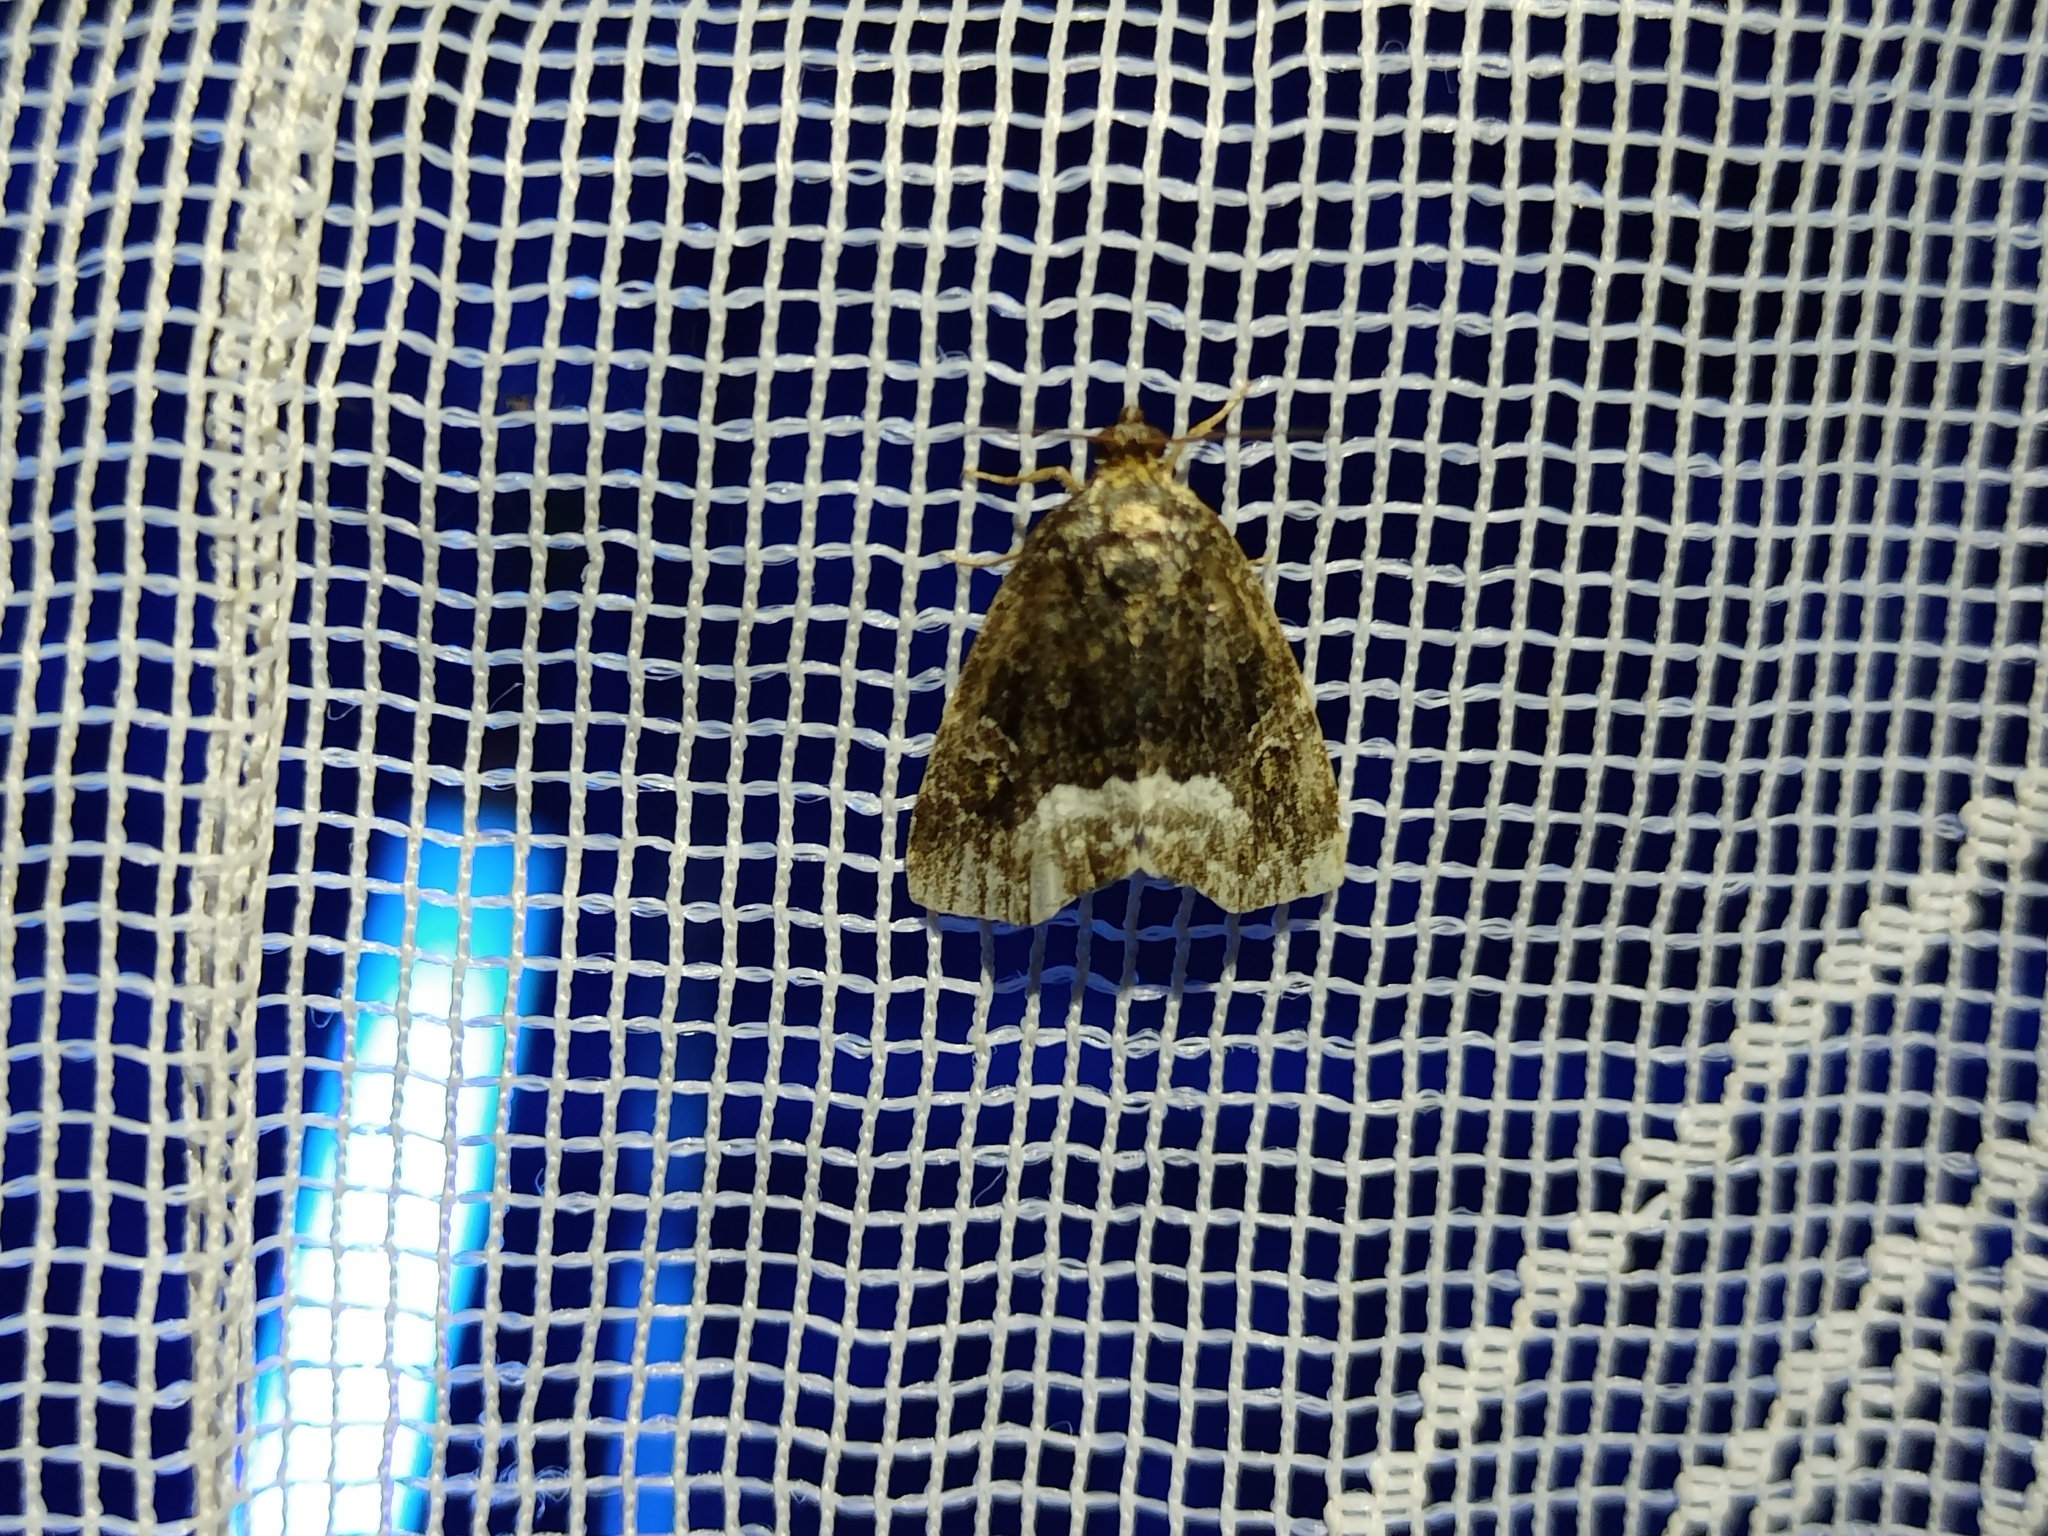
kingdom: Animalia
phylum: Arthropoda
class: Insecta
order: Lepidoptera
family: Noctuidae
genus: Deltote
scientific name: Deltote pygarga
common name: Marbled white spot
